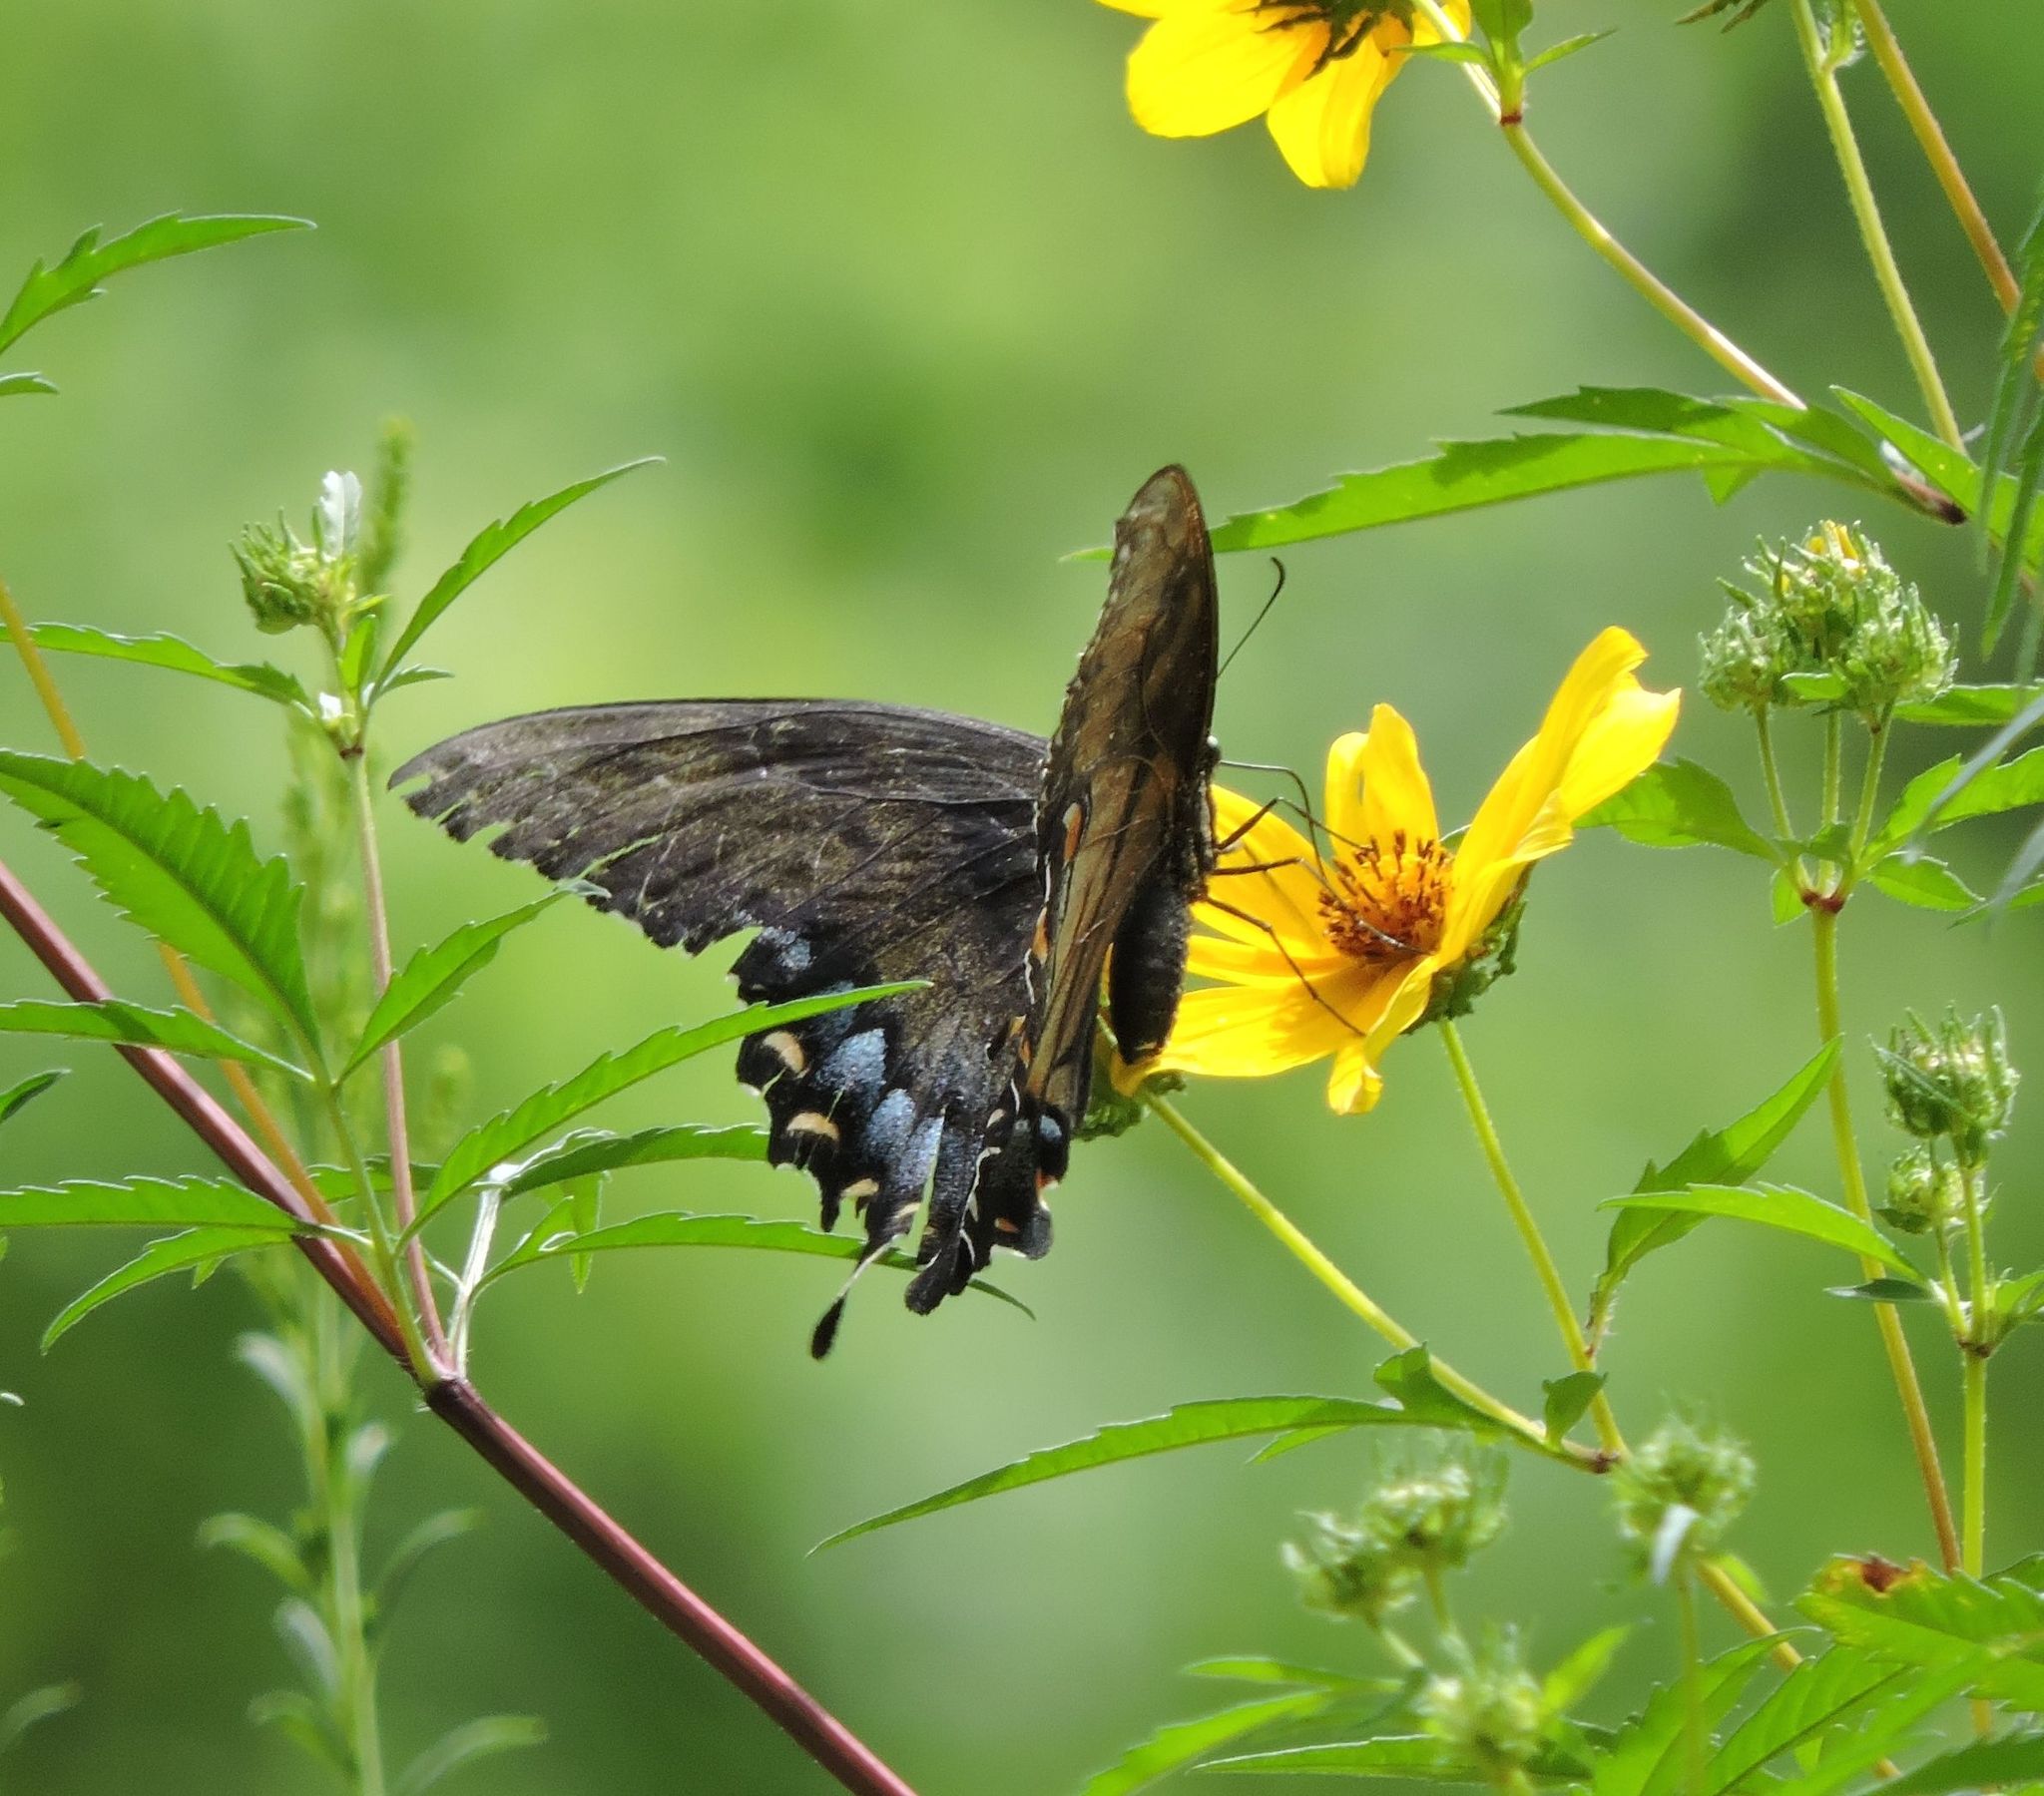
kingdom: Animalia
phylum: Arthropoda
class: Insecta
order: Lepidoptera
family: Papilionidae
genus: Papilio
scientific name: Papilio glaucus
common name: Tiger swallowtail
